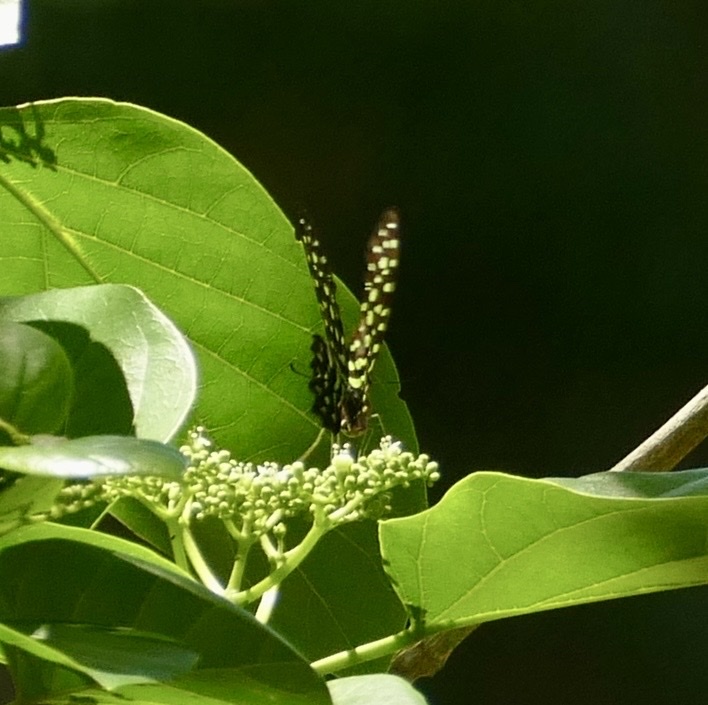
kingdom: Animalia
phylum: Arthropoda
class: Insecta
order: Lepidoptera
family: Papilionidae
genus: Graphium
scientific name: Graphium agamemnon
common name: Tailed jay
